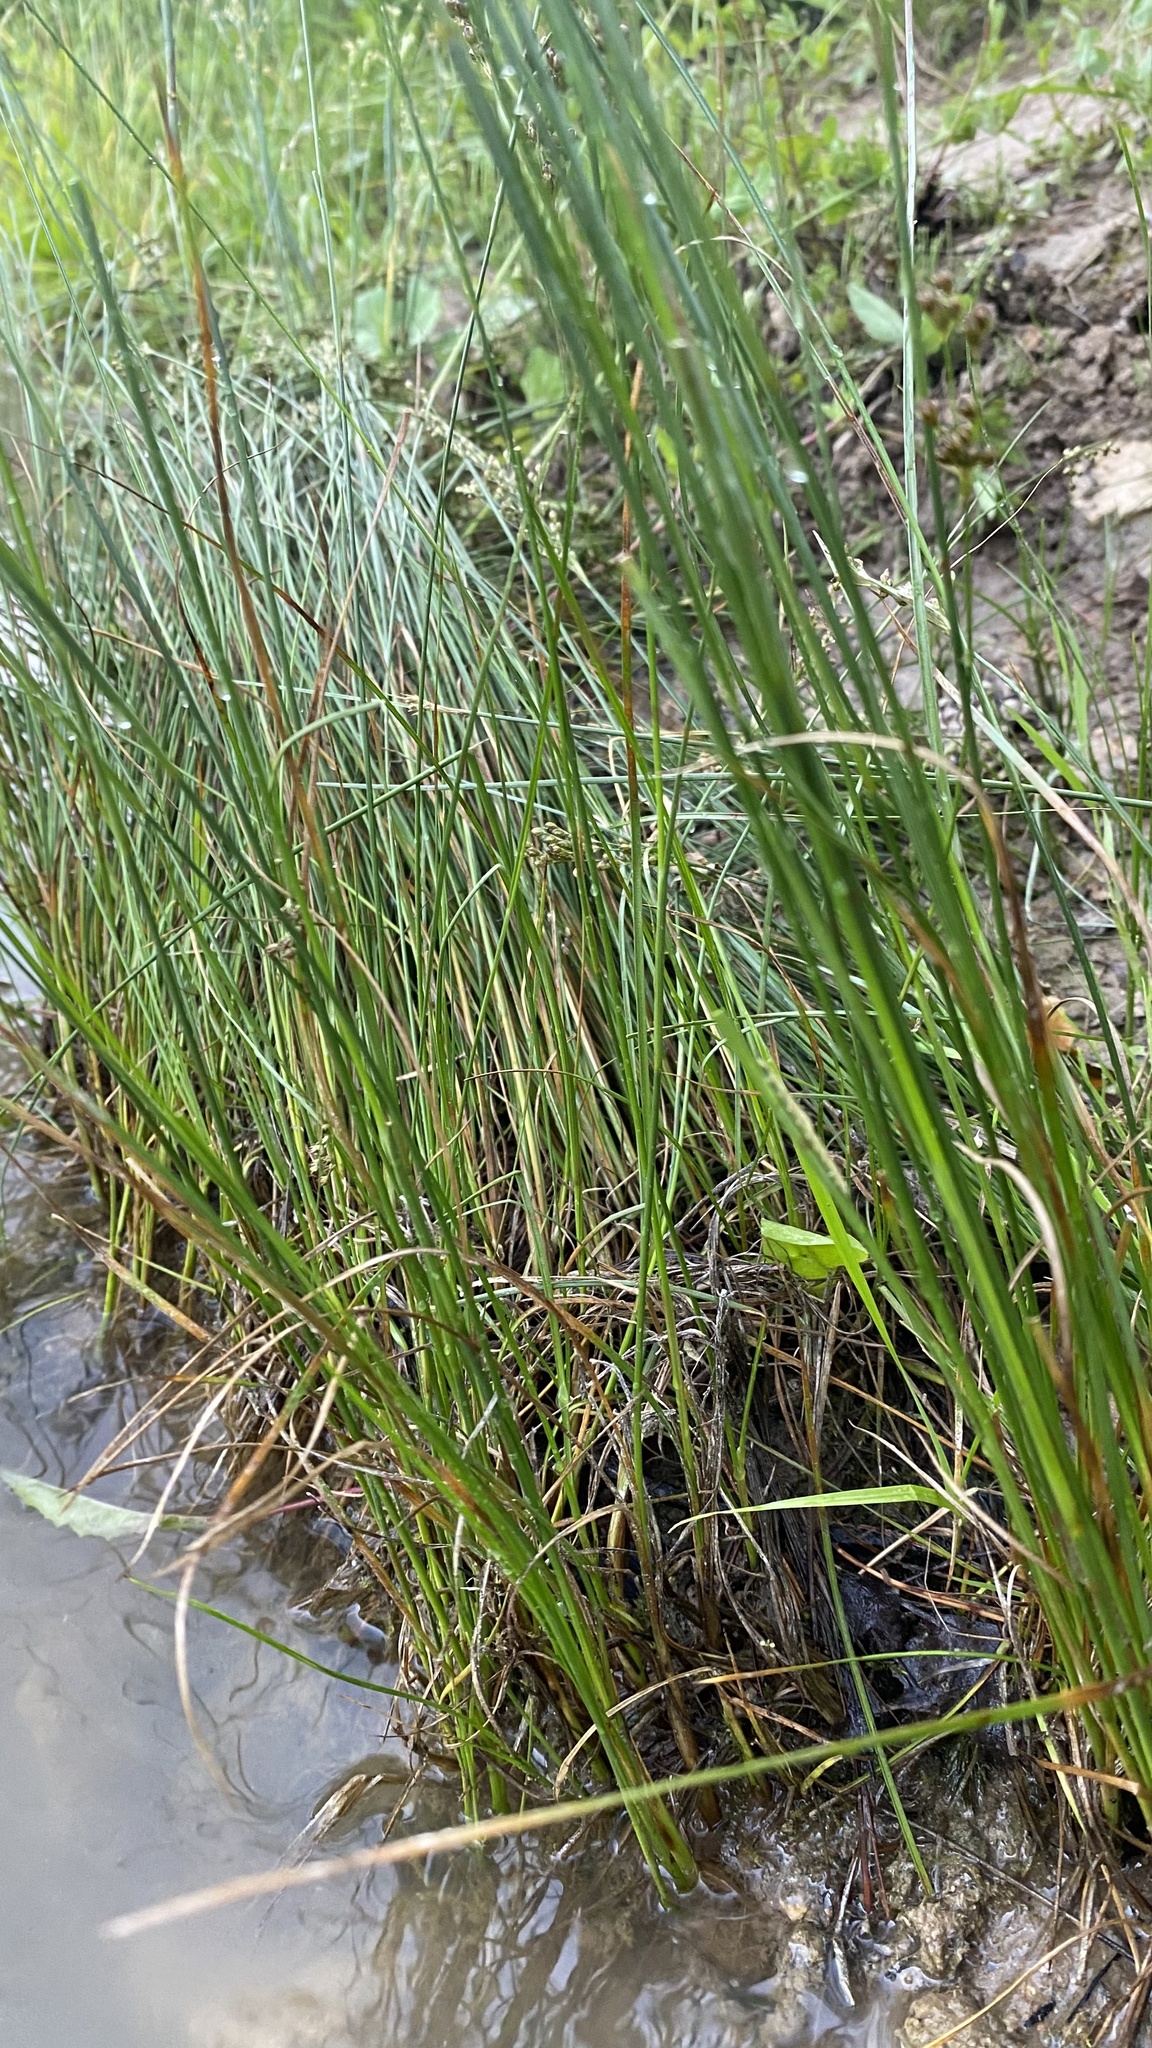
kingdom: Plantae
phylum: Tracheophyta
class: Liliopsida
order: Poales
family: Juncaceae
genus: Juncus
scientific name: Juncus compressus
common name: Round-fruited rush
